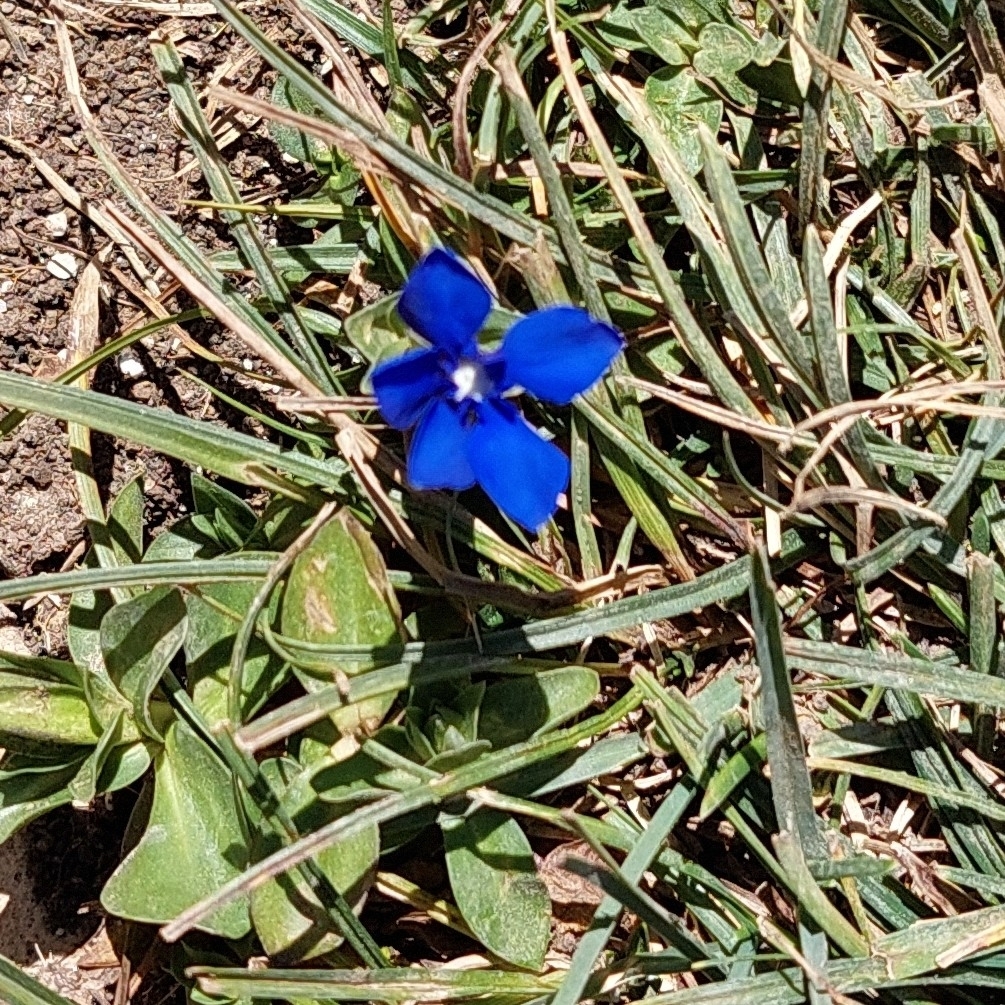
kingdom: Plantae
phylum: Tracheophyta
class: Magnoliopsida
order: Gentianales
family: Gentianaceae
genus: Gentiana
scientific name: Gentiana verna
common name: Spring gentian
